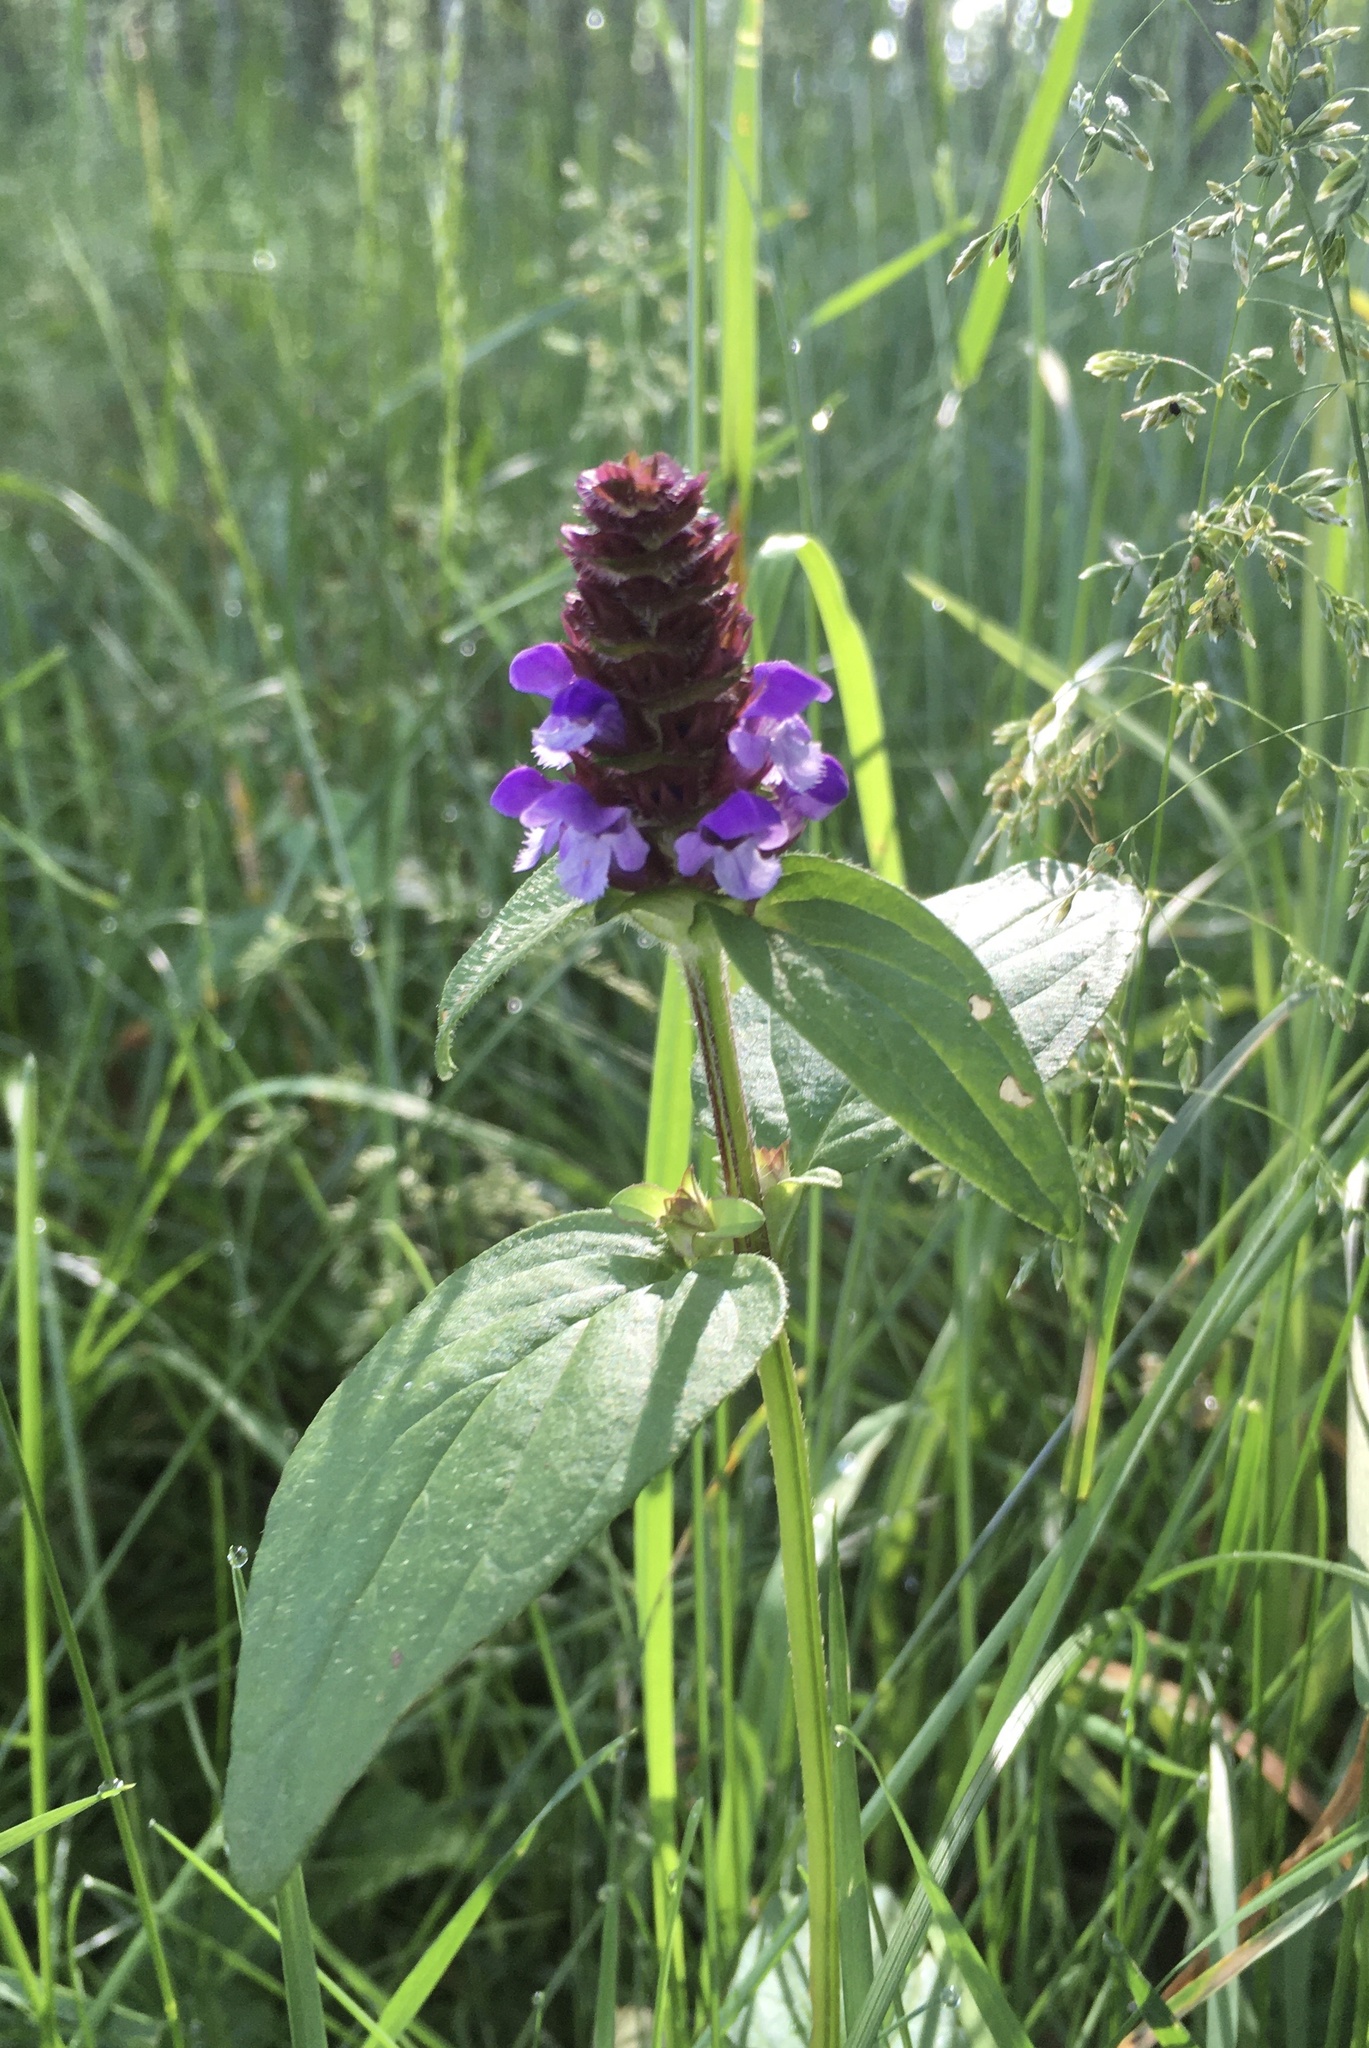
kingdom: Plantae
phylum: Tracheophyta
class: Magnoliopsida
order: Lamiales
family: Lamiaceae
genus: Prunella
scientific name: Prunella vulgaris
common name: Heal-all
